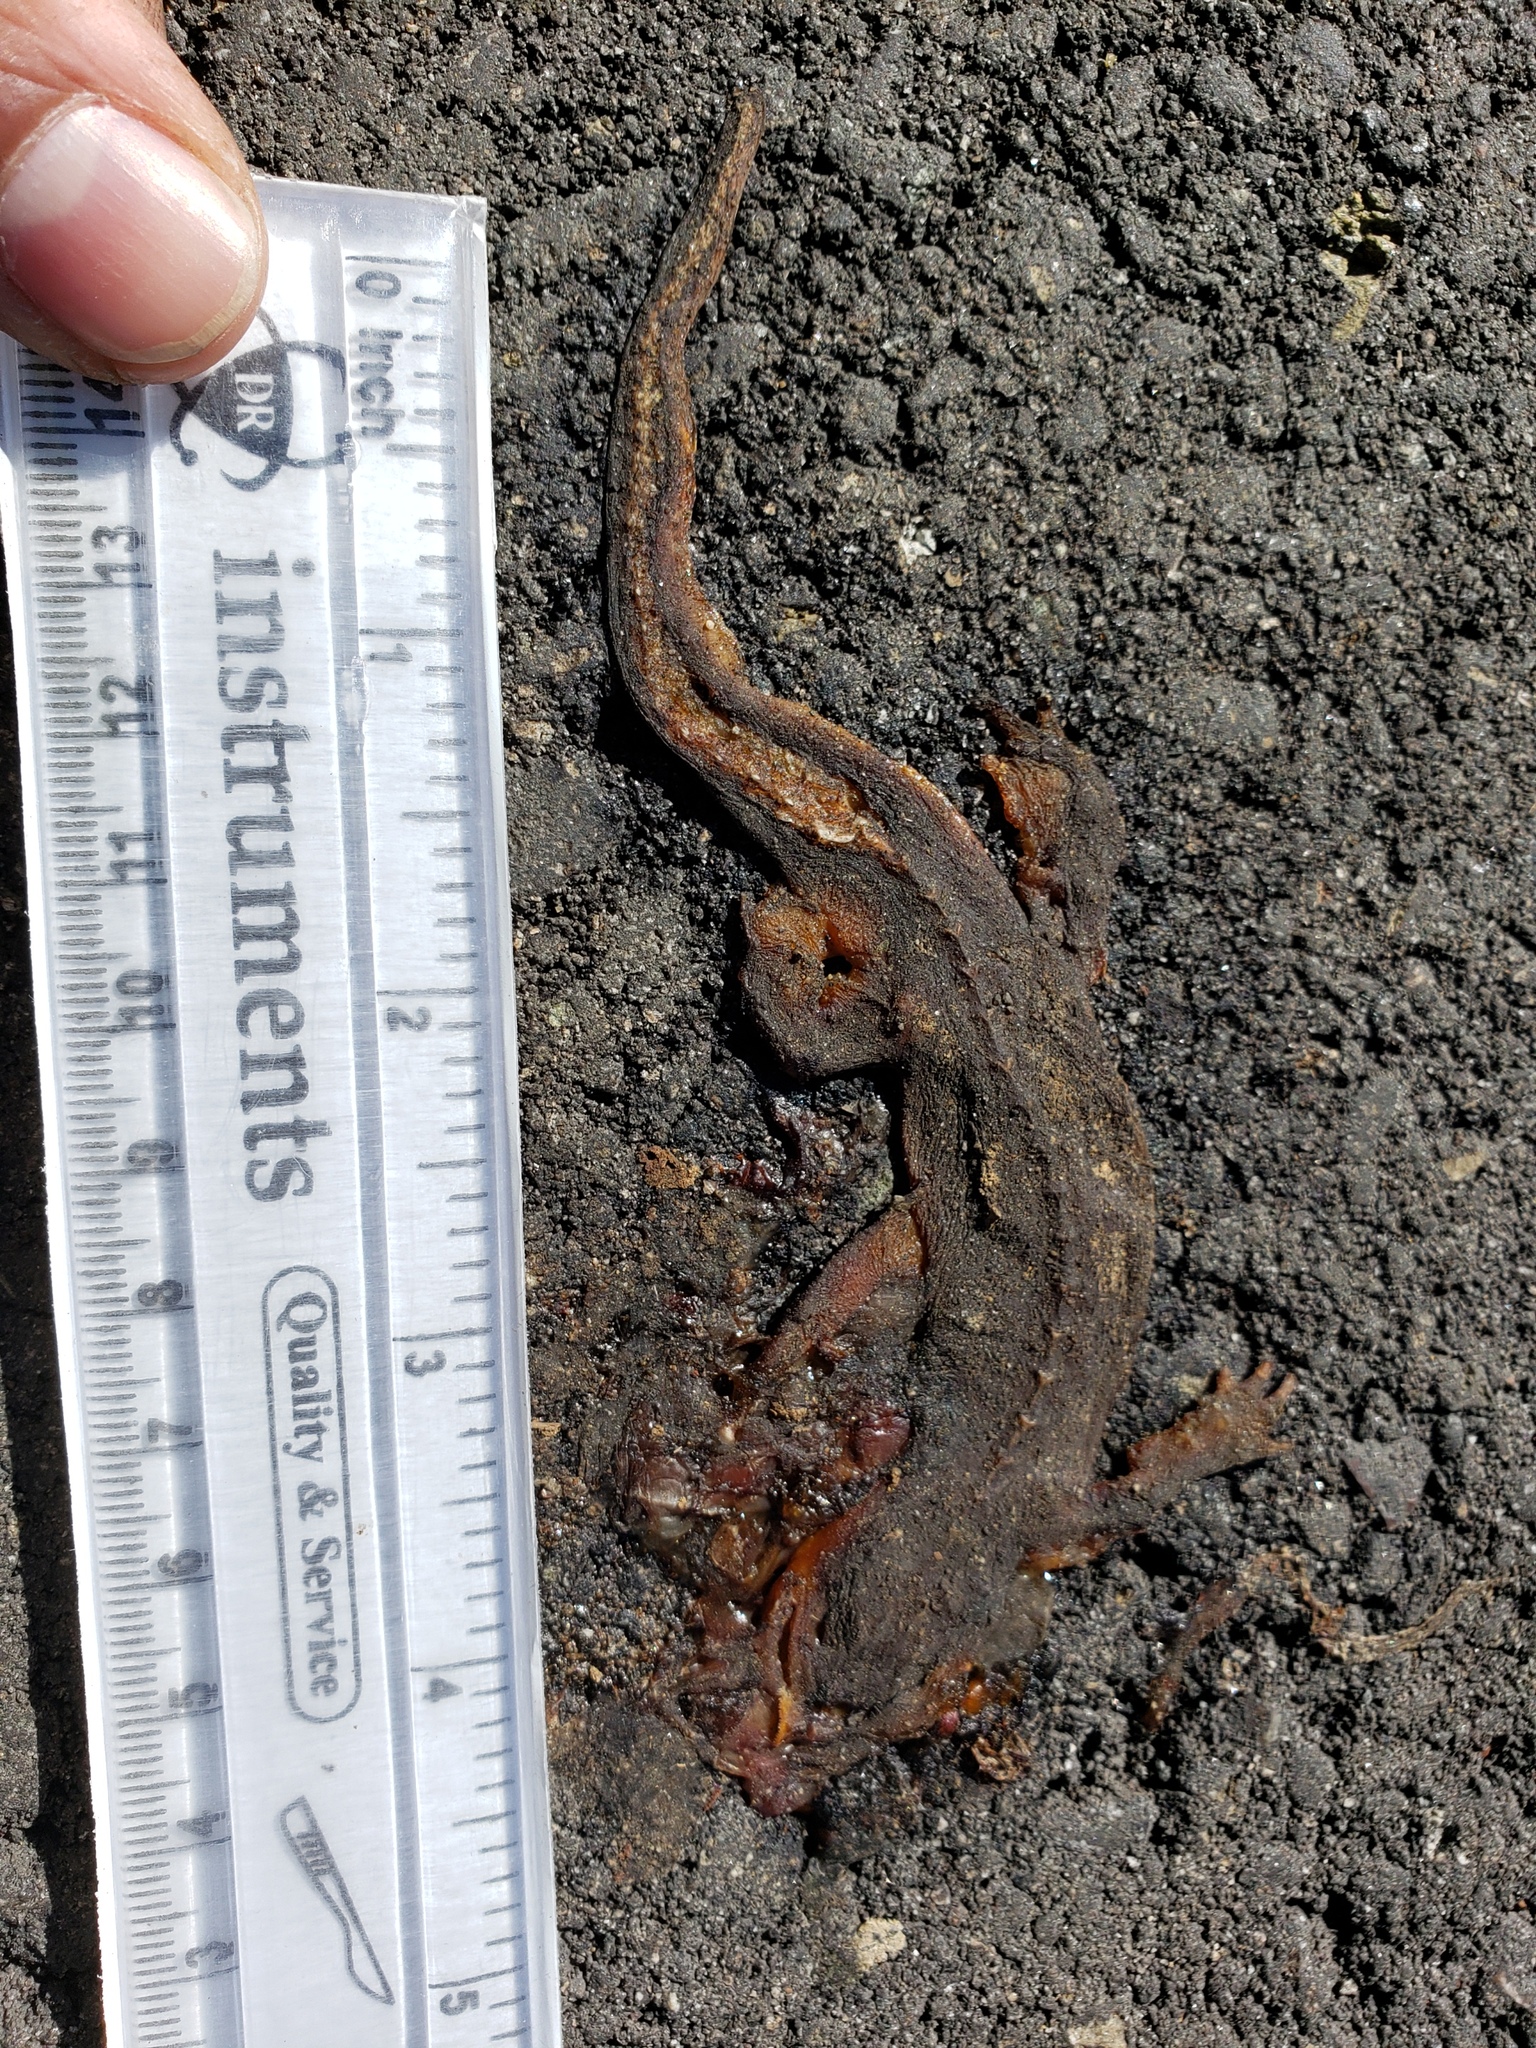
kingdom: Animalia
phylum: Chordata
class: Amphibia
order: Caudata
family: Salamandridae
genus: Taricha
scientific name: Taricha
